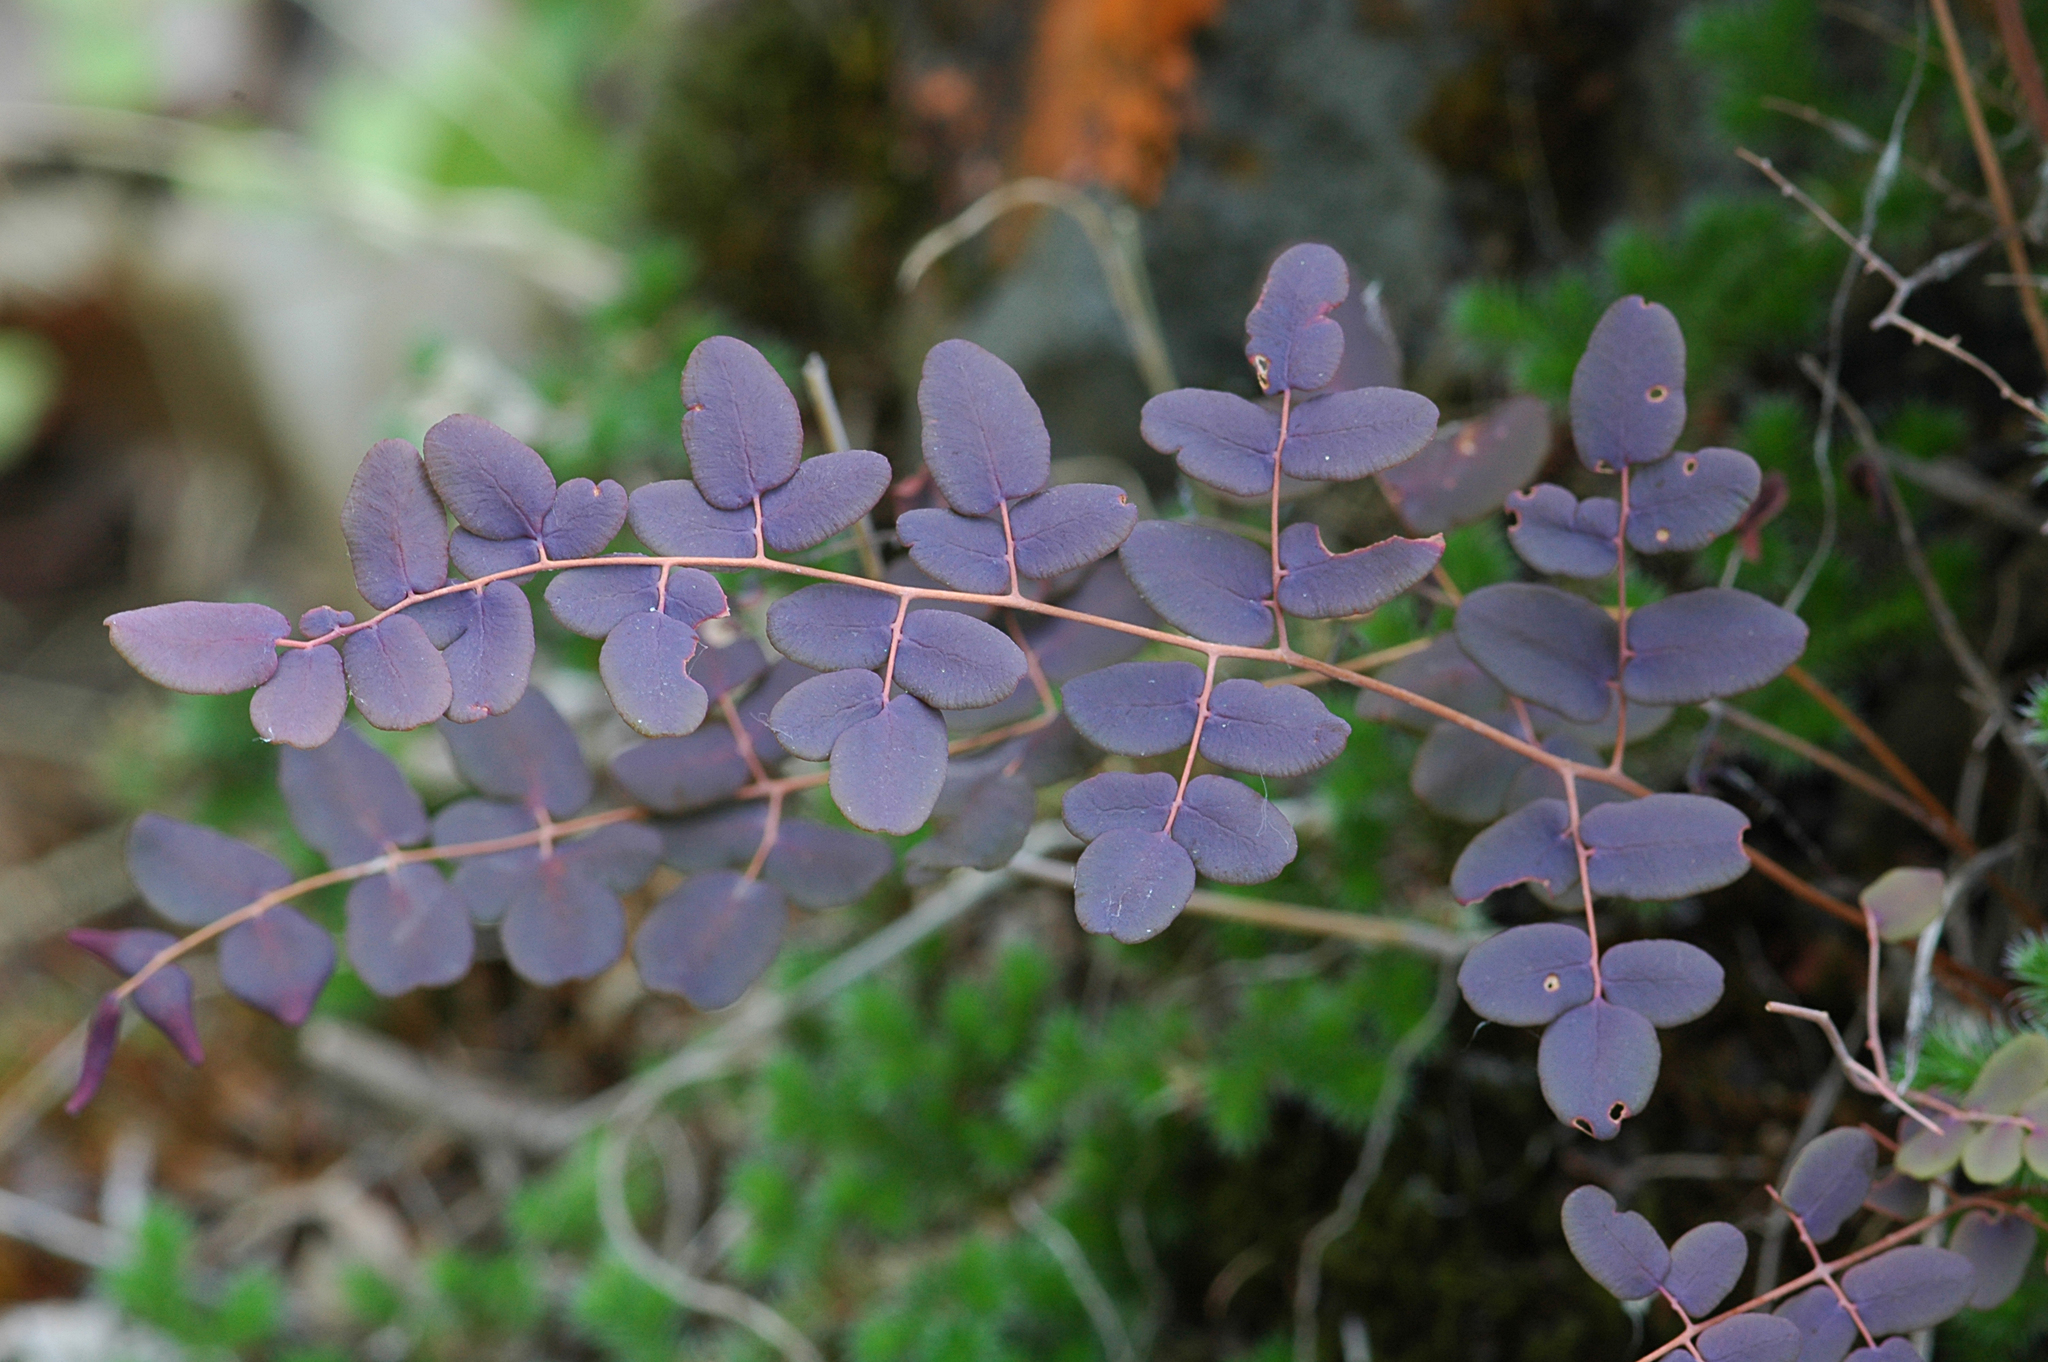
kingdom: Plantae
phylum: Tracheophyta
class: Polypodiopsida
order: Polypodiales
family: Pteridaceae
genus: Pellaea
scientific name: Pellaea andromedifolia
